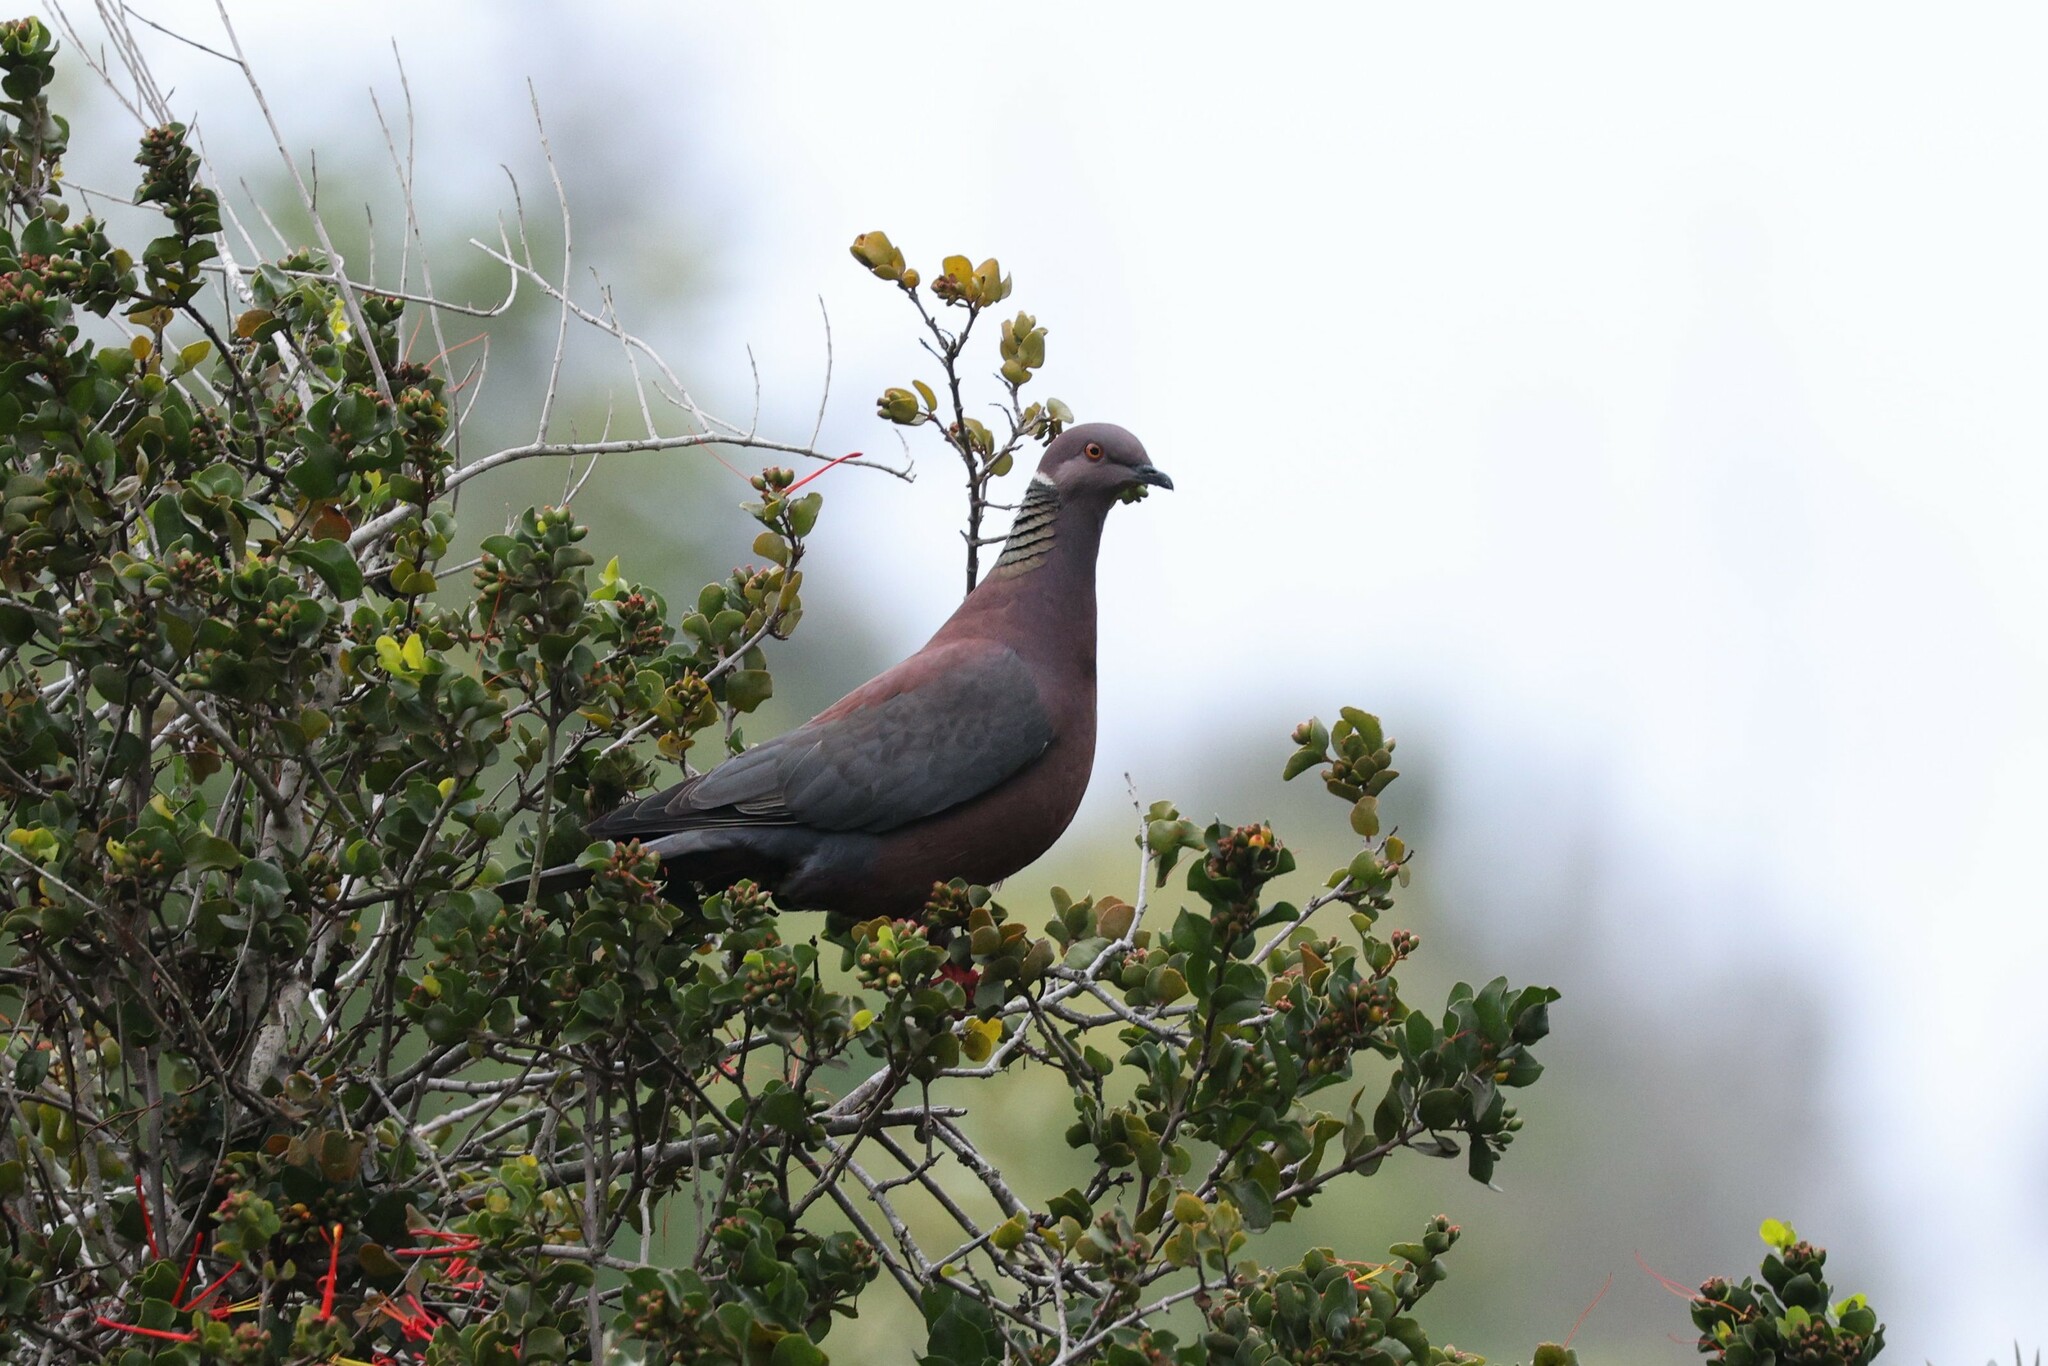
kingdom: Animalia
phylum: Chordata
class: Aves
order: Columbiformes
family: Columbidae
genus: Patagioenas
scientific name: Patagioenas araucana
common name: Chilean pigeon
